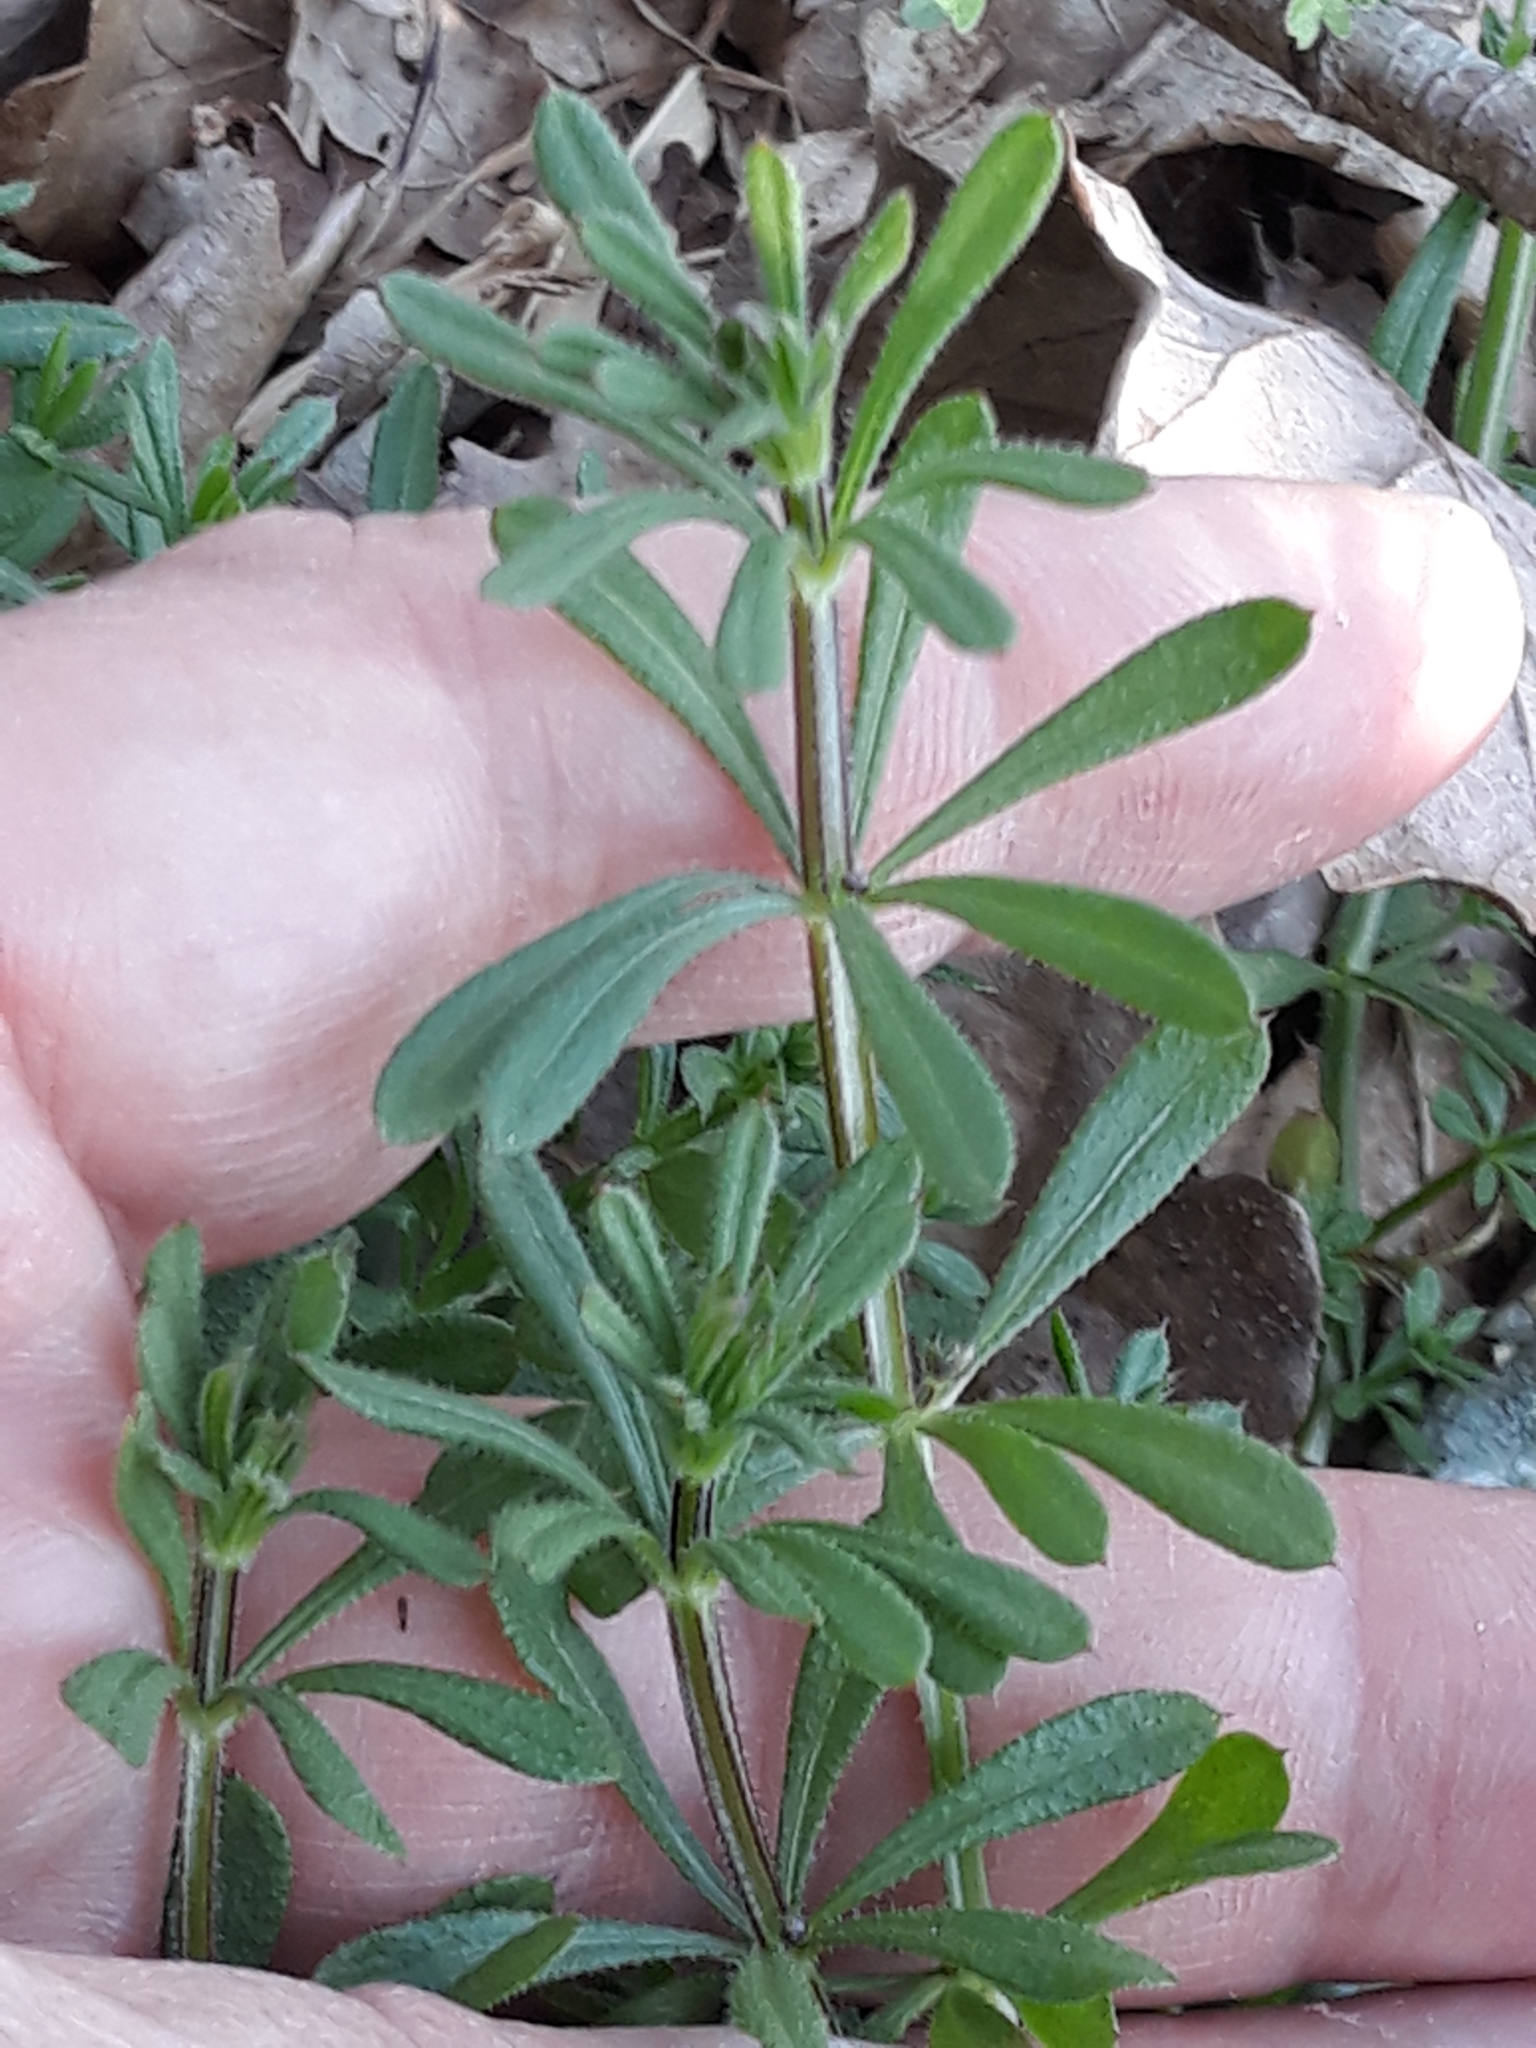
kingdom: Plantae
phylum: Tracheophyta
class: Magnoliopsida
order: Gentianales
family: Rubiaceae
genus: Galium
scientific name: Galium aparine
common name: Cleavers
